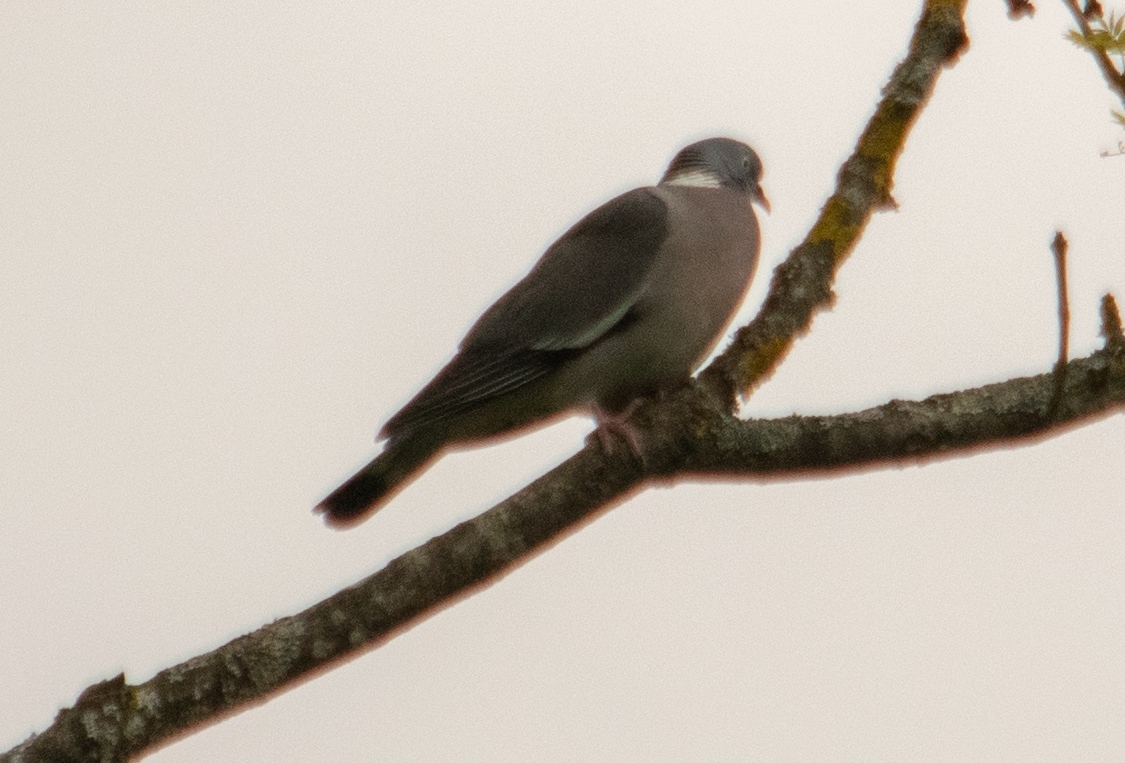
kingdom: Animalia
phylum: Chordata
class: Aves
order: Columbiformes
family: Columbidae
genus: Columba
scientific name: Columba palumbus
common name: Common wood pigeon
